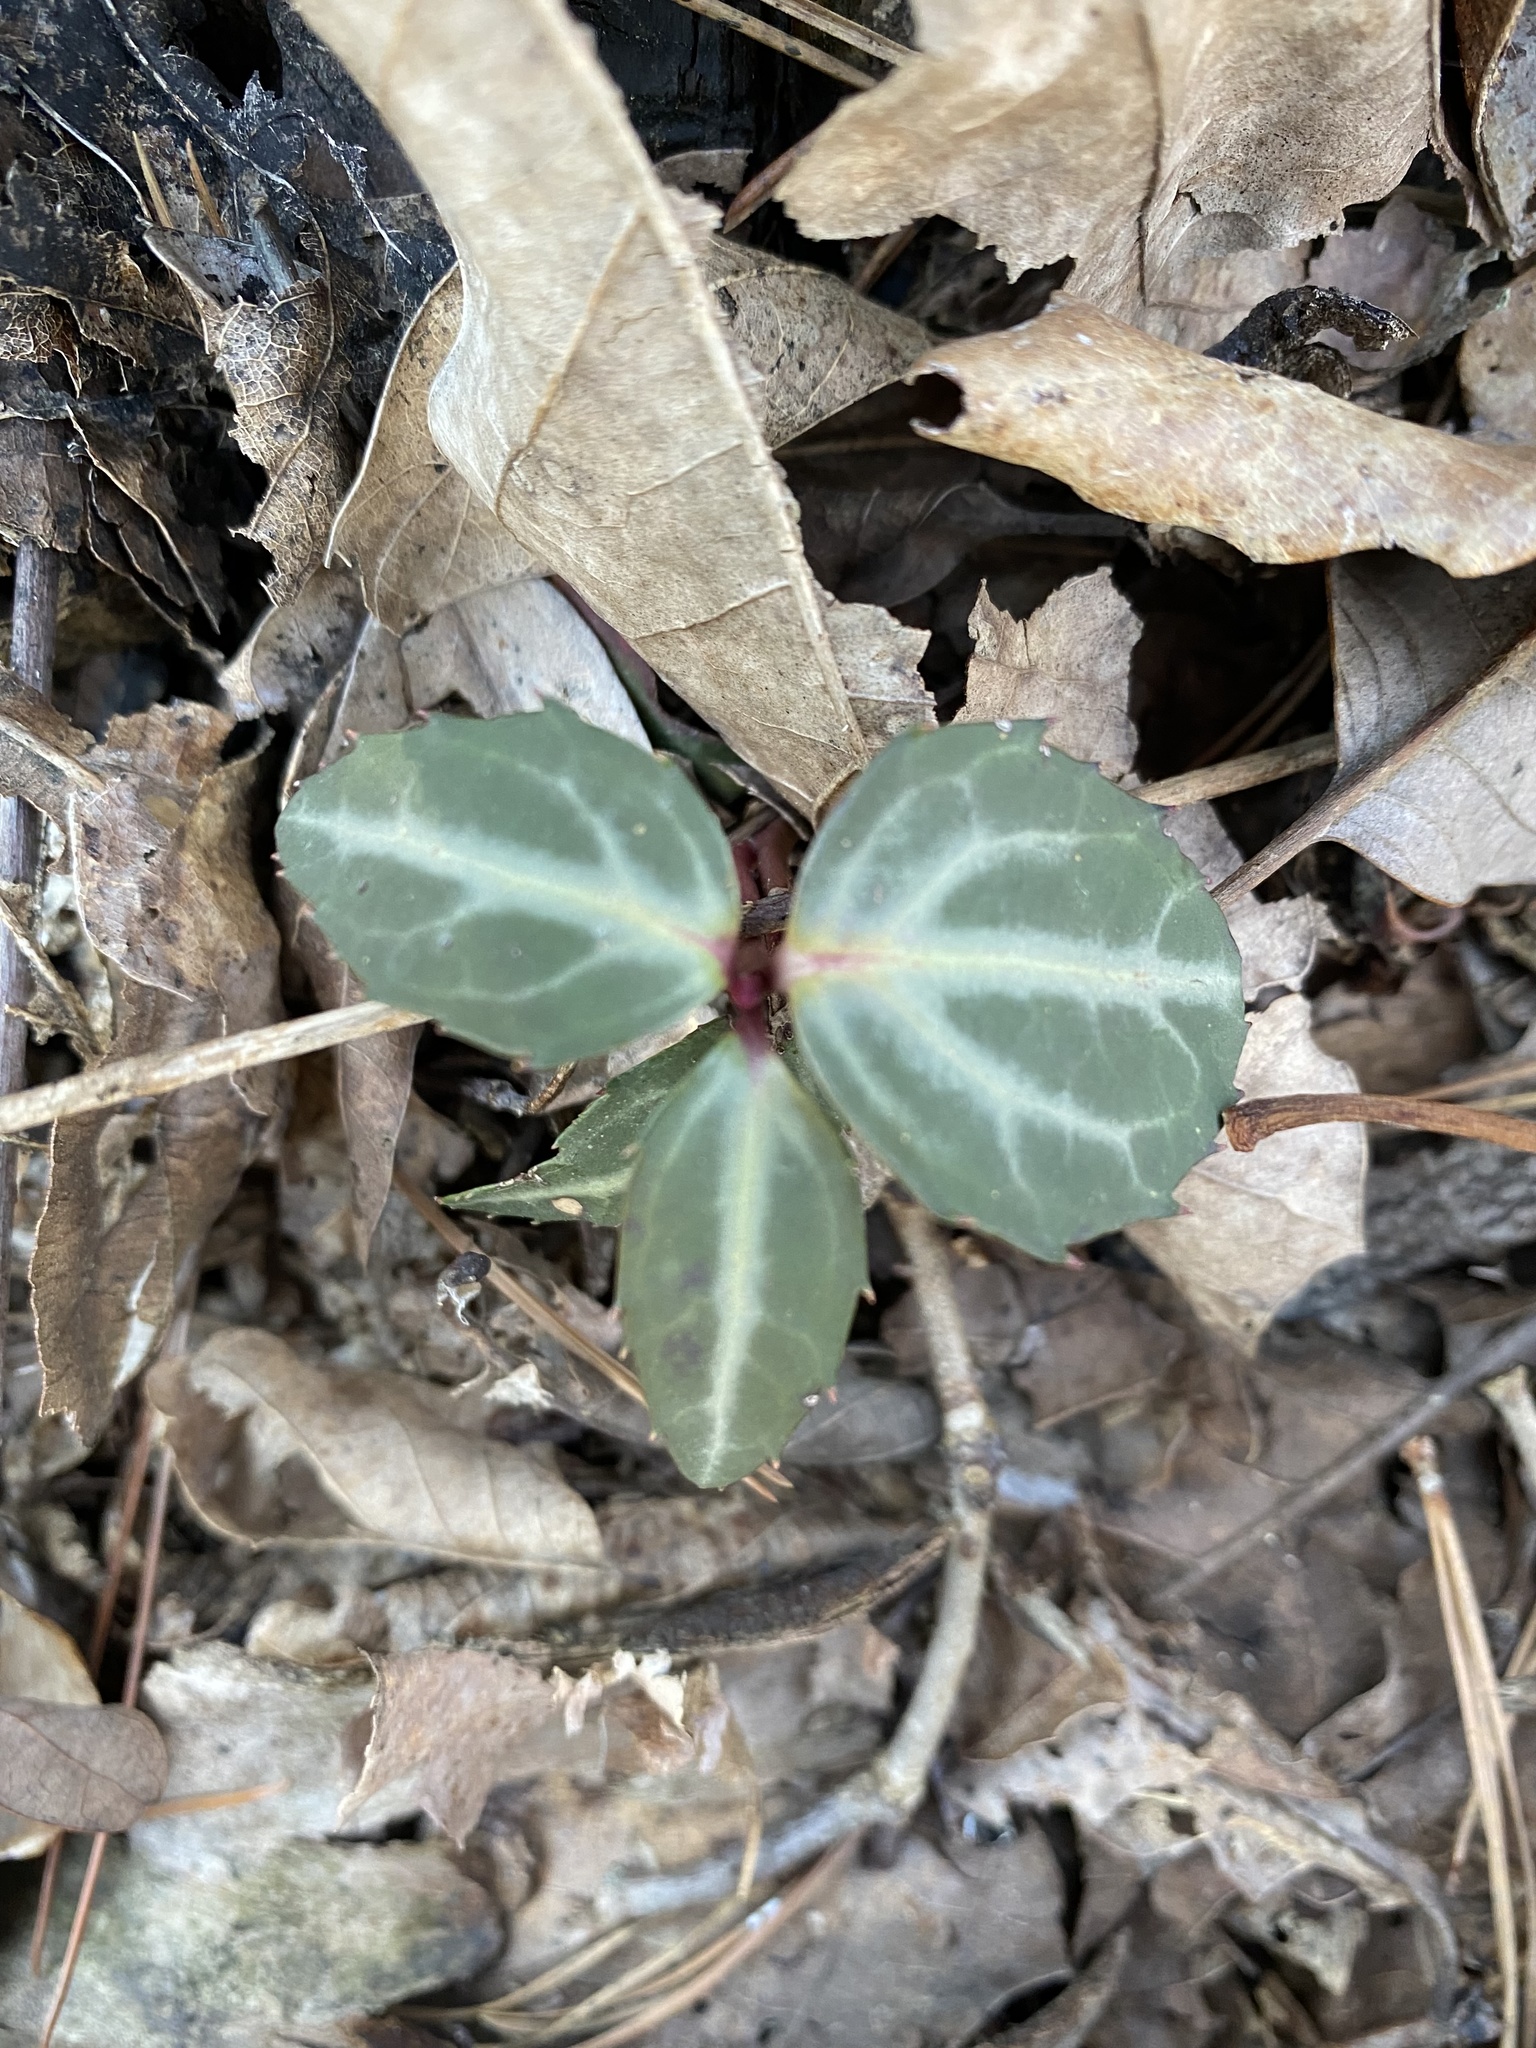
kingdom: Plantae
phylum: Tracheophyta
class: Magnoliopsida
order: Ericales
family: Ericaceae
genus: Chimaphila
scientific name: Chimaphila maculata
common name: Spotted pipsissewa
